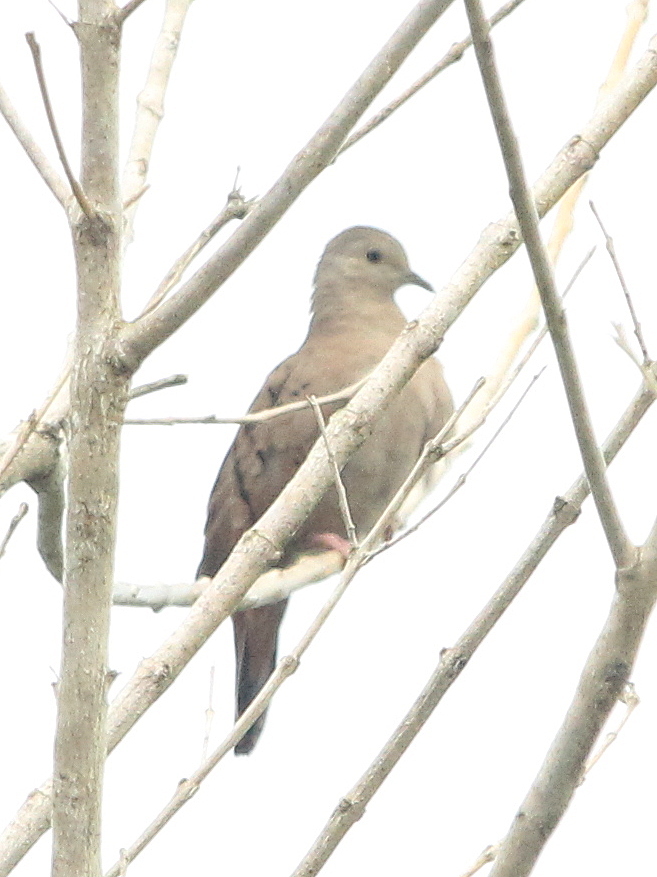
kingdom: Animalia
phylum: Chordata
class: Aves
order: Columbiformes
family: Columbidae
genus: Columbina
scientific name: Columbina talpacoti
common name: Ruddy ground dove
